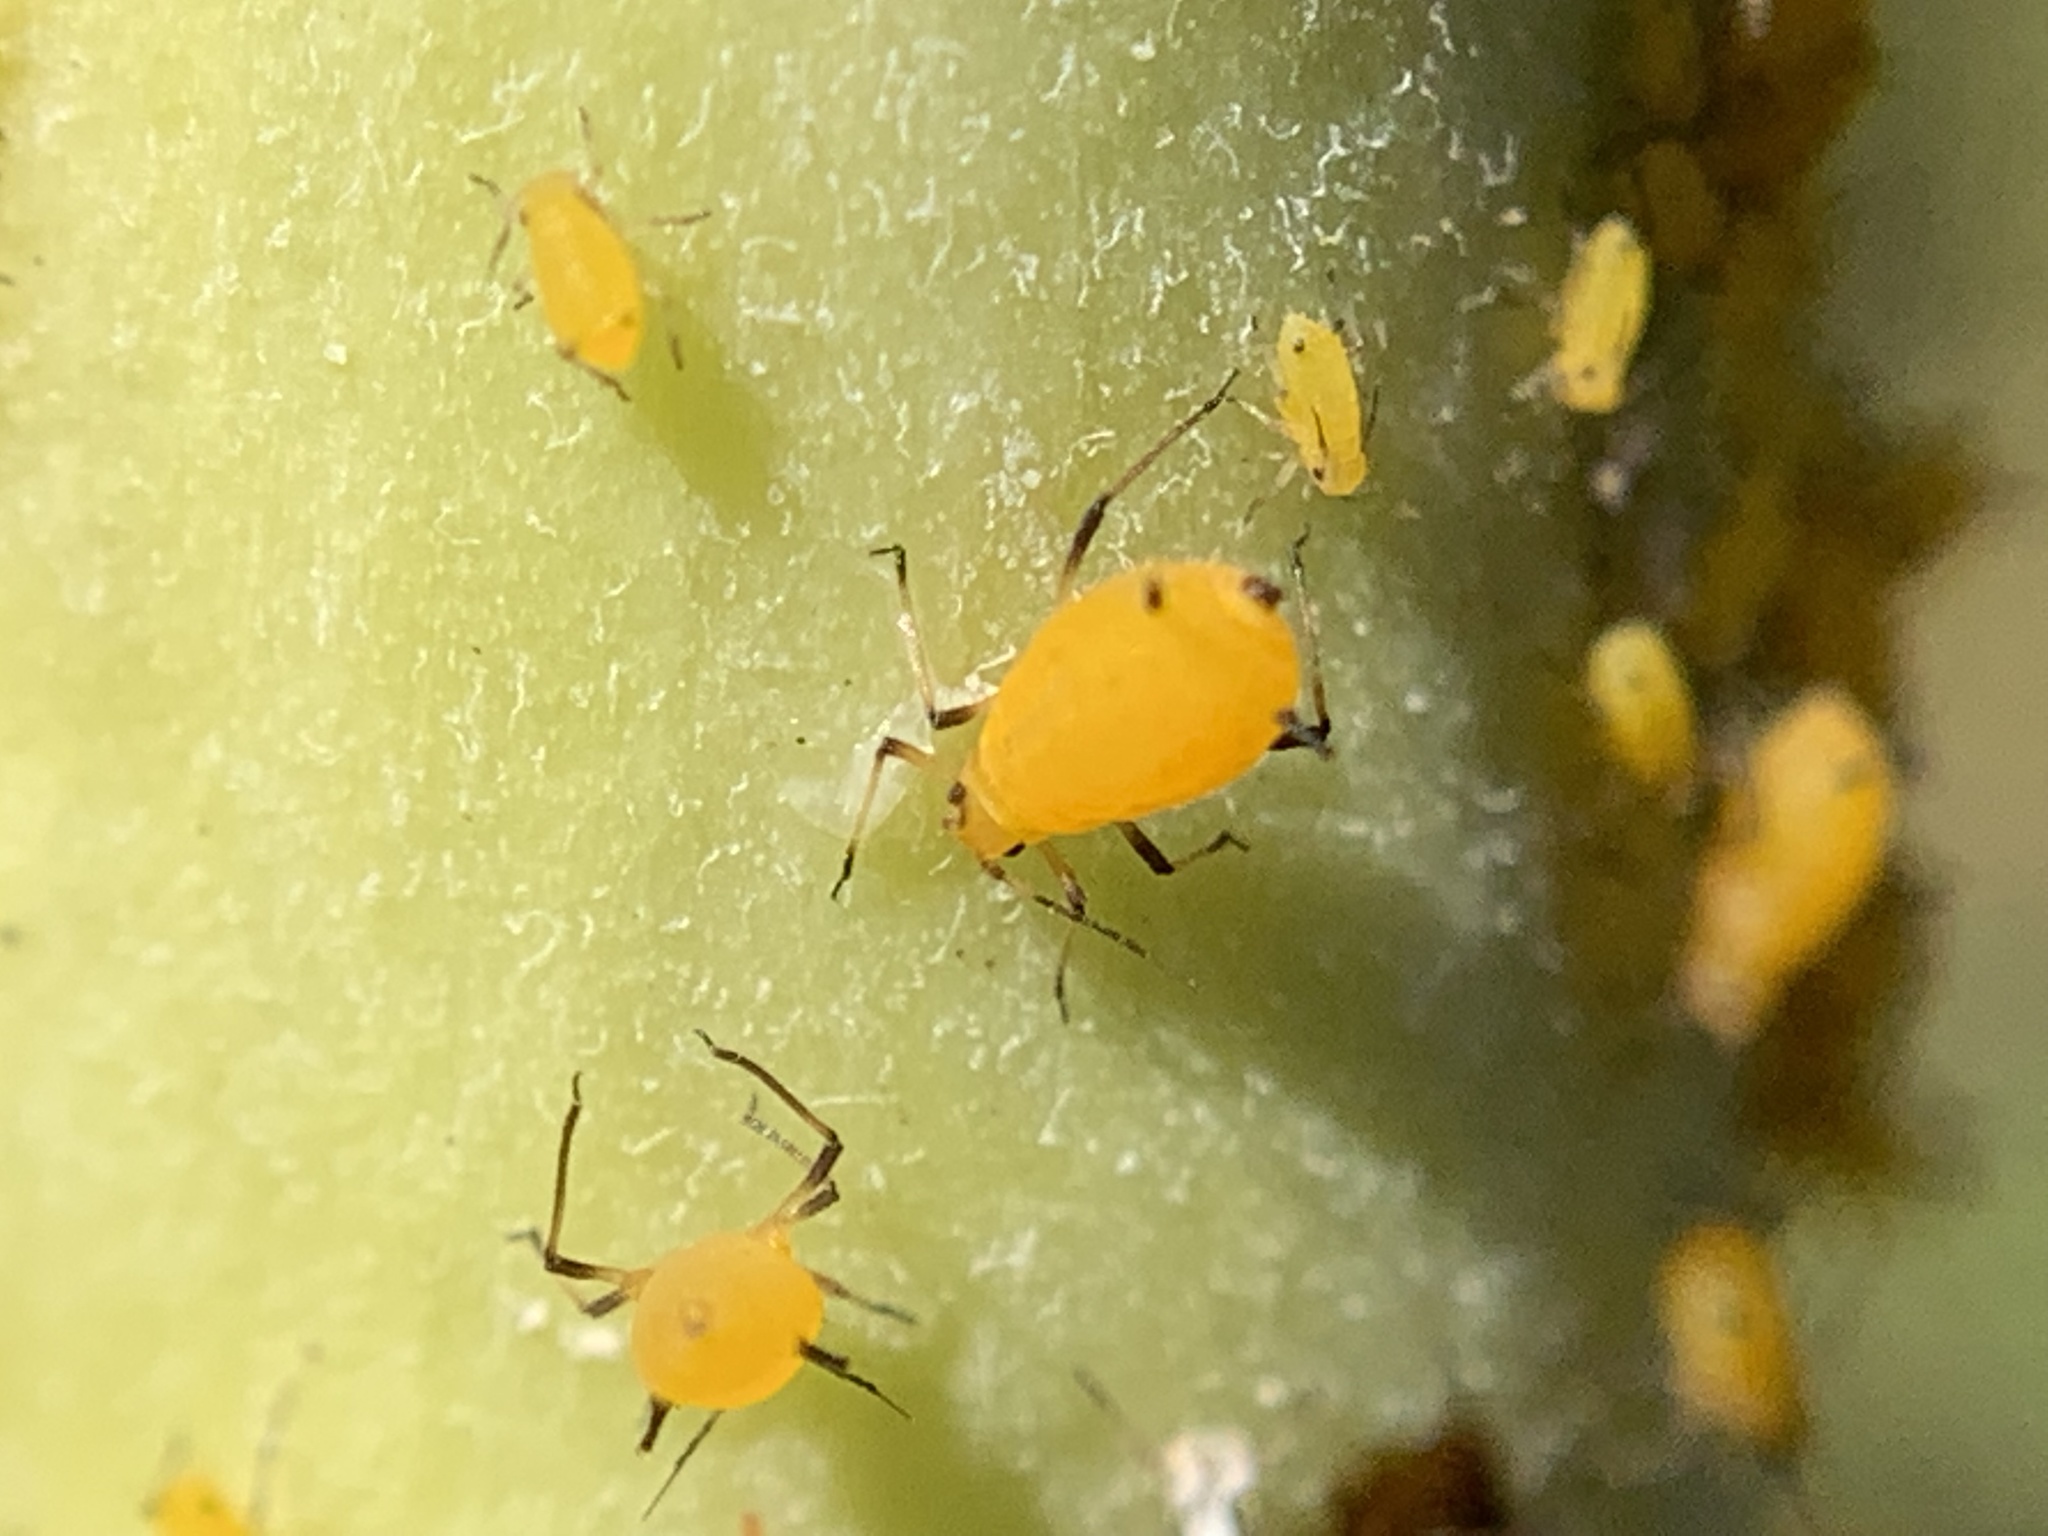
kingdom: Animalia
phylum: Arthropoda
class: Insecta
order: Hemiptera
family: Aphididae
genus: Aphis
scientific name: Aphis nerii
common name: Oleander aphid
